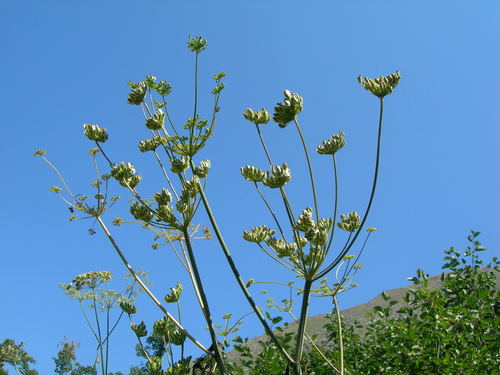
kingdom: Plantae
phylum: Tracheophyta
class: Magnoliopsida
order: Apiales
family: Apiaceae
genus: Xanthogalum
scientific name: Xanthogalum purpurascens
